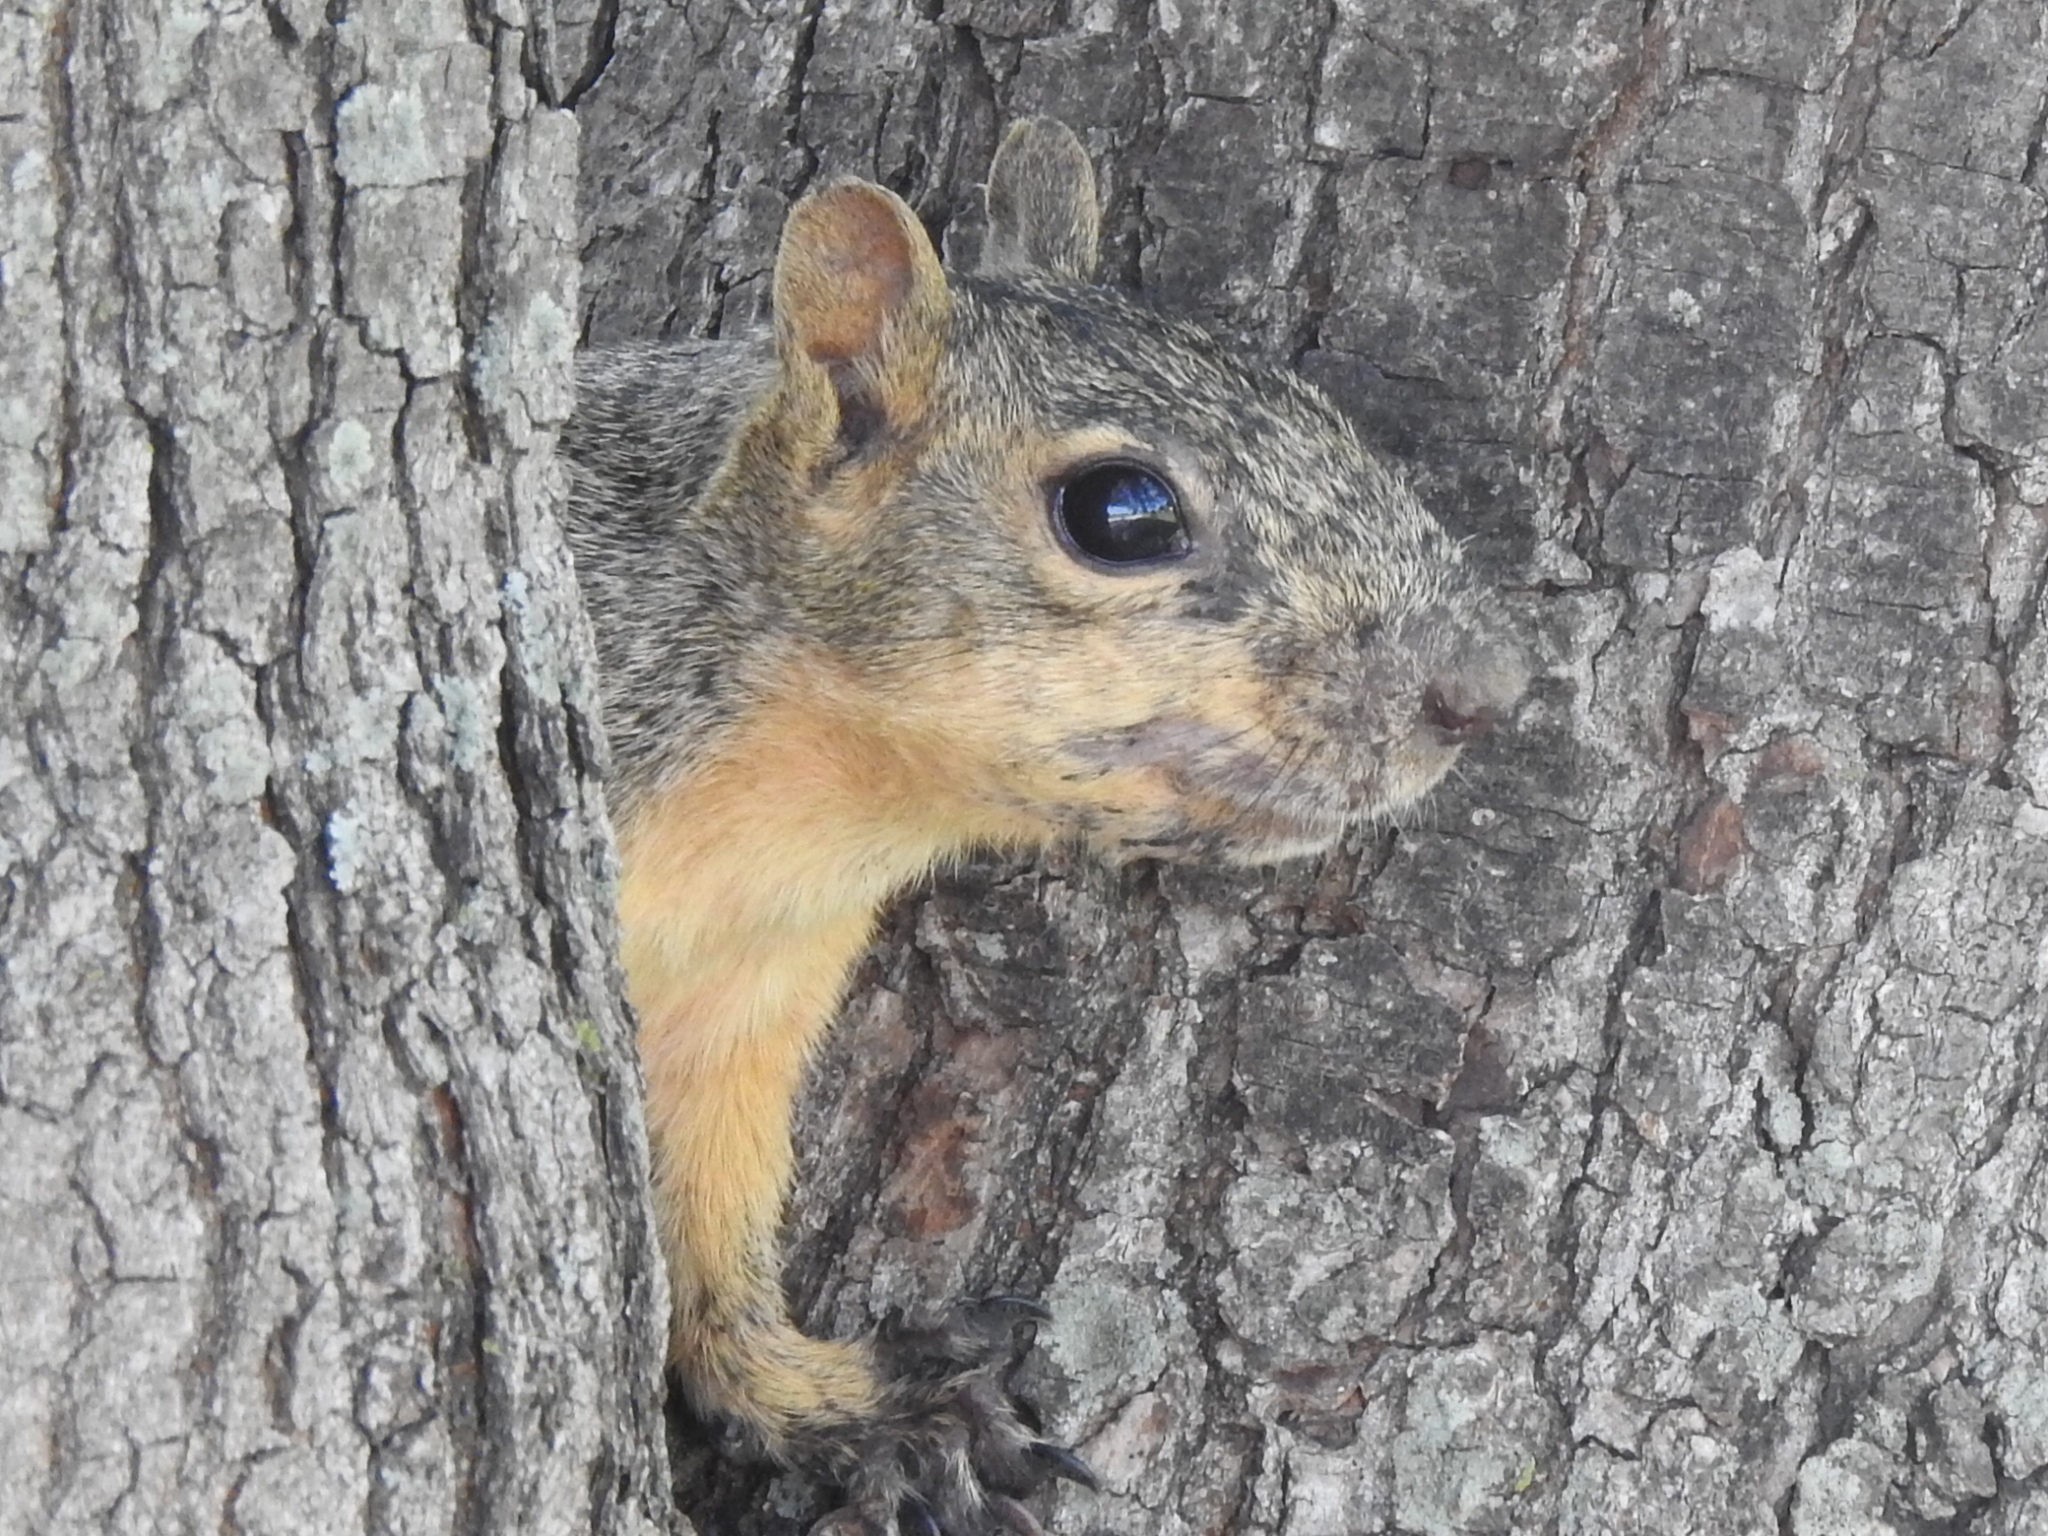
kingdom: Animalia
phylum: Chordata
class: Mammalia
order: Rodentia
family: Sciuridae
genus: Sciurus
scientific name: Sciurus niger
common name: Fox squirrel
